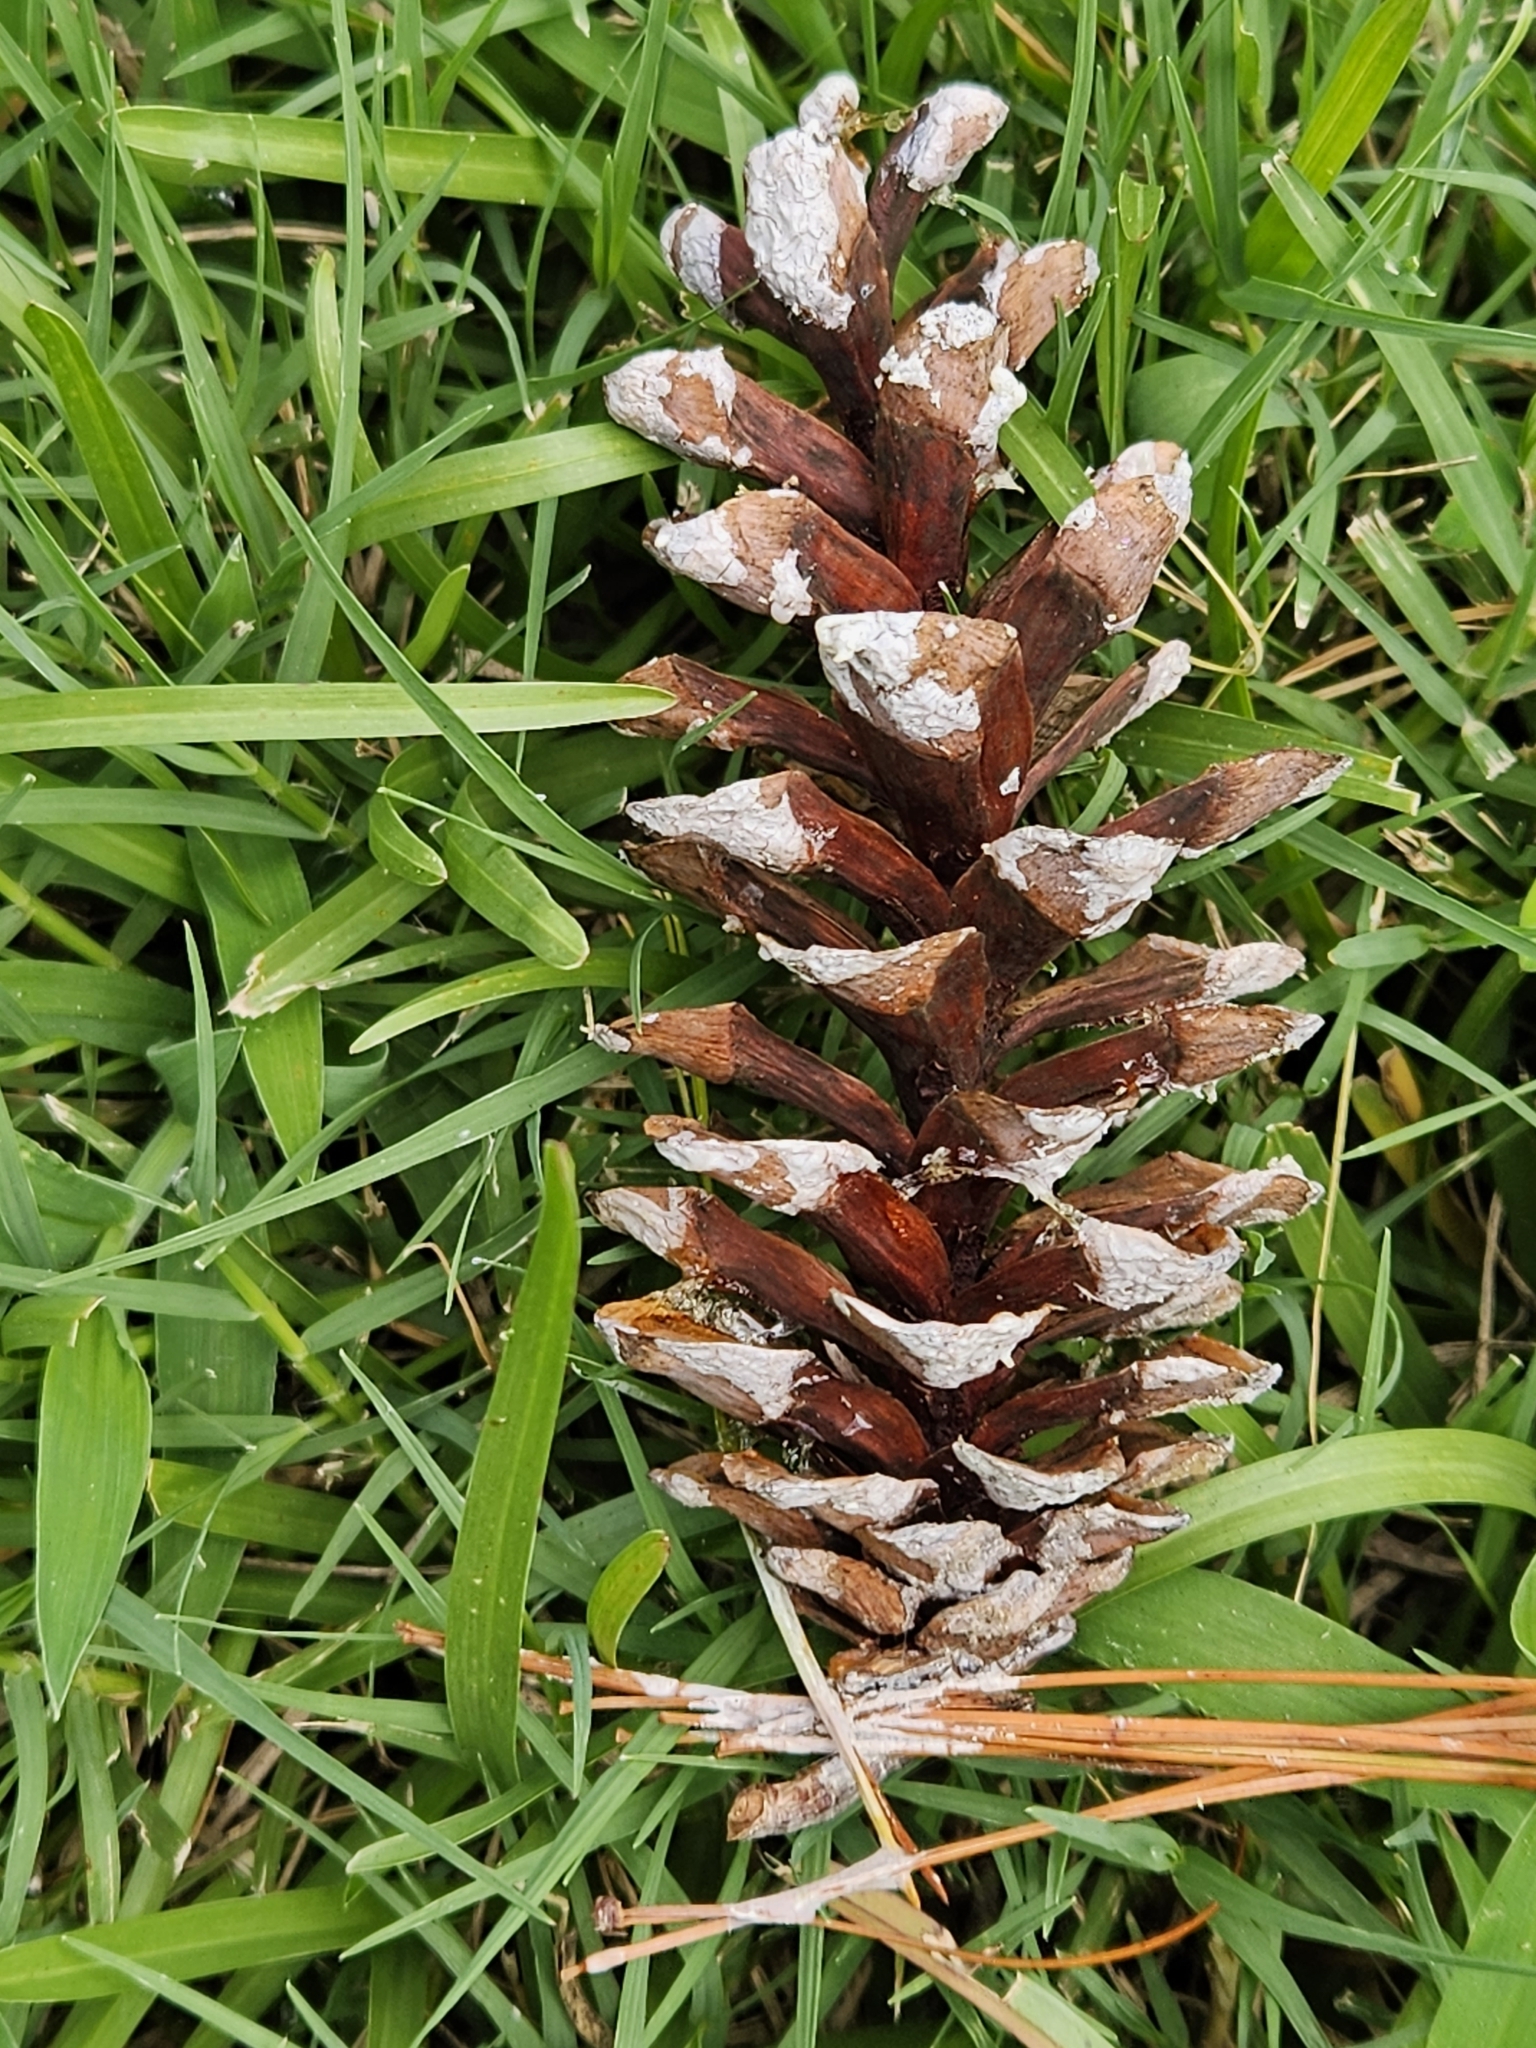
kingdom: Plantae
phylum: Tracheophyta
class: Pinopsida
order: Pinales
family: Pinaceae
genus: Pinus
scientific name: Pinus strobus
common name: Weymouth pine
